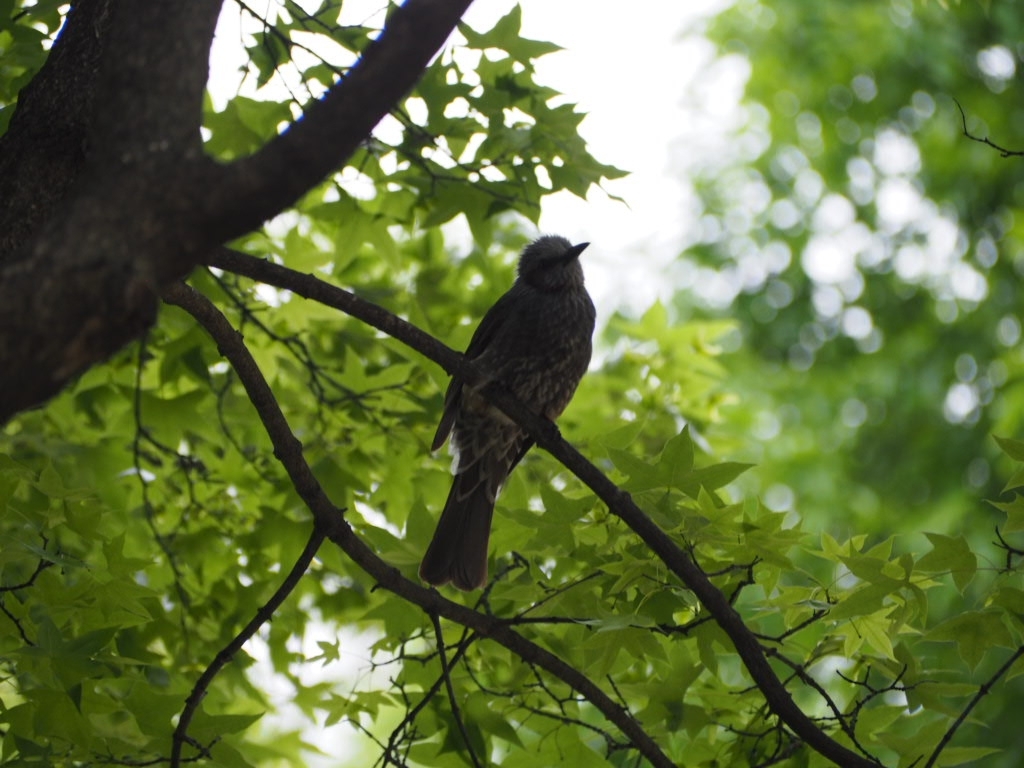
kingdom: Animalia
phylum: Chordata
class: Aves
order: Passeriformes
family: Pycnonotidae
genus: Hypsipetes
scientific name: Hypsipetes amaurotis
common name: Brown-eared bulbul
